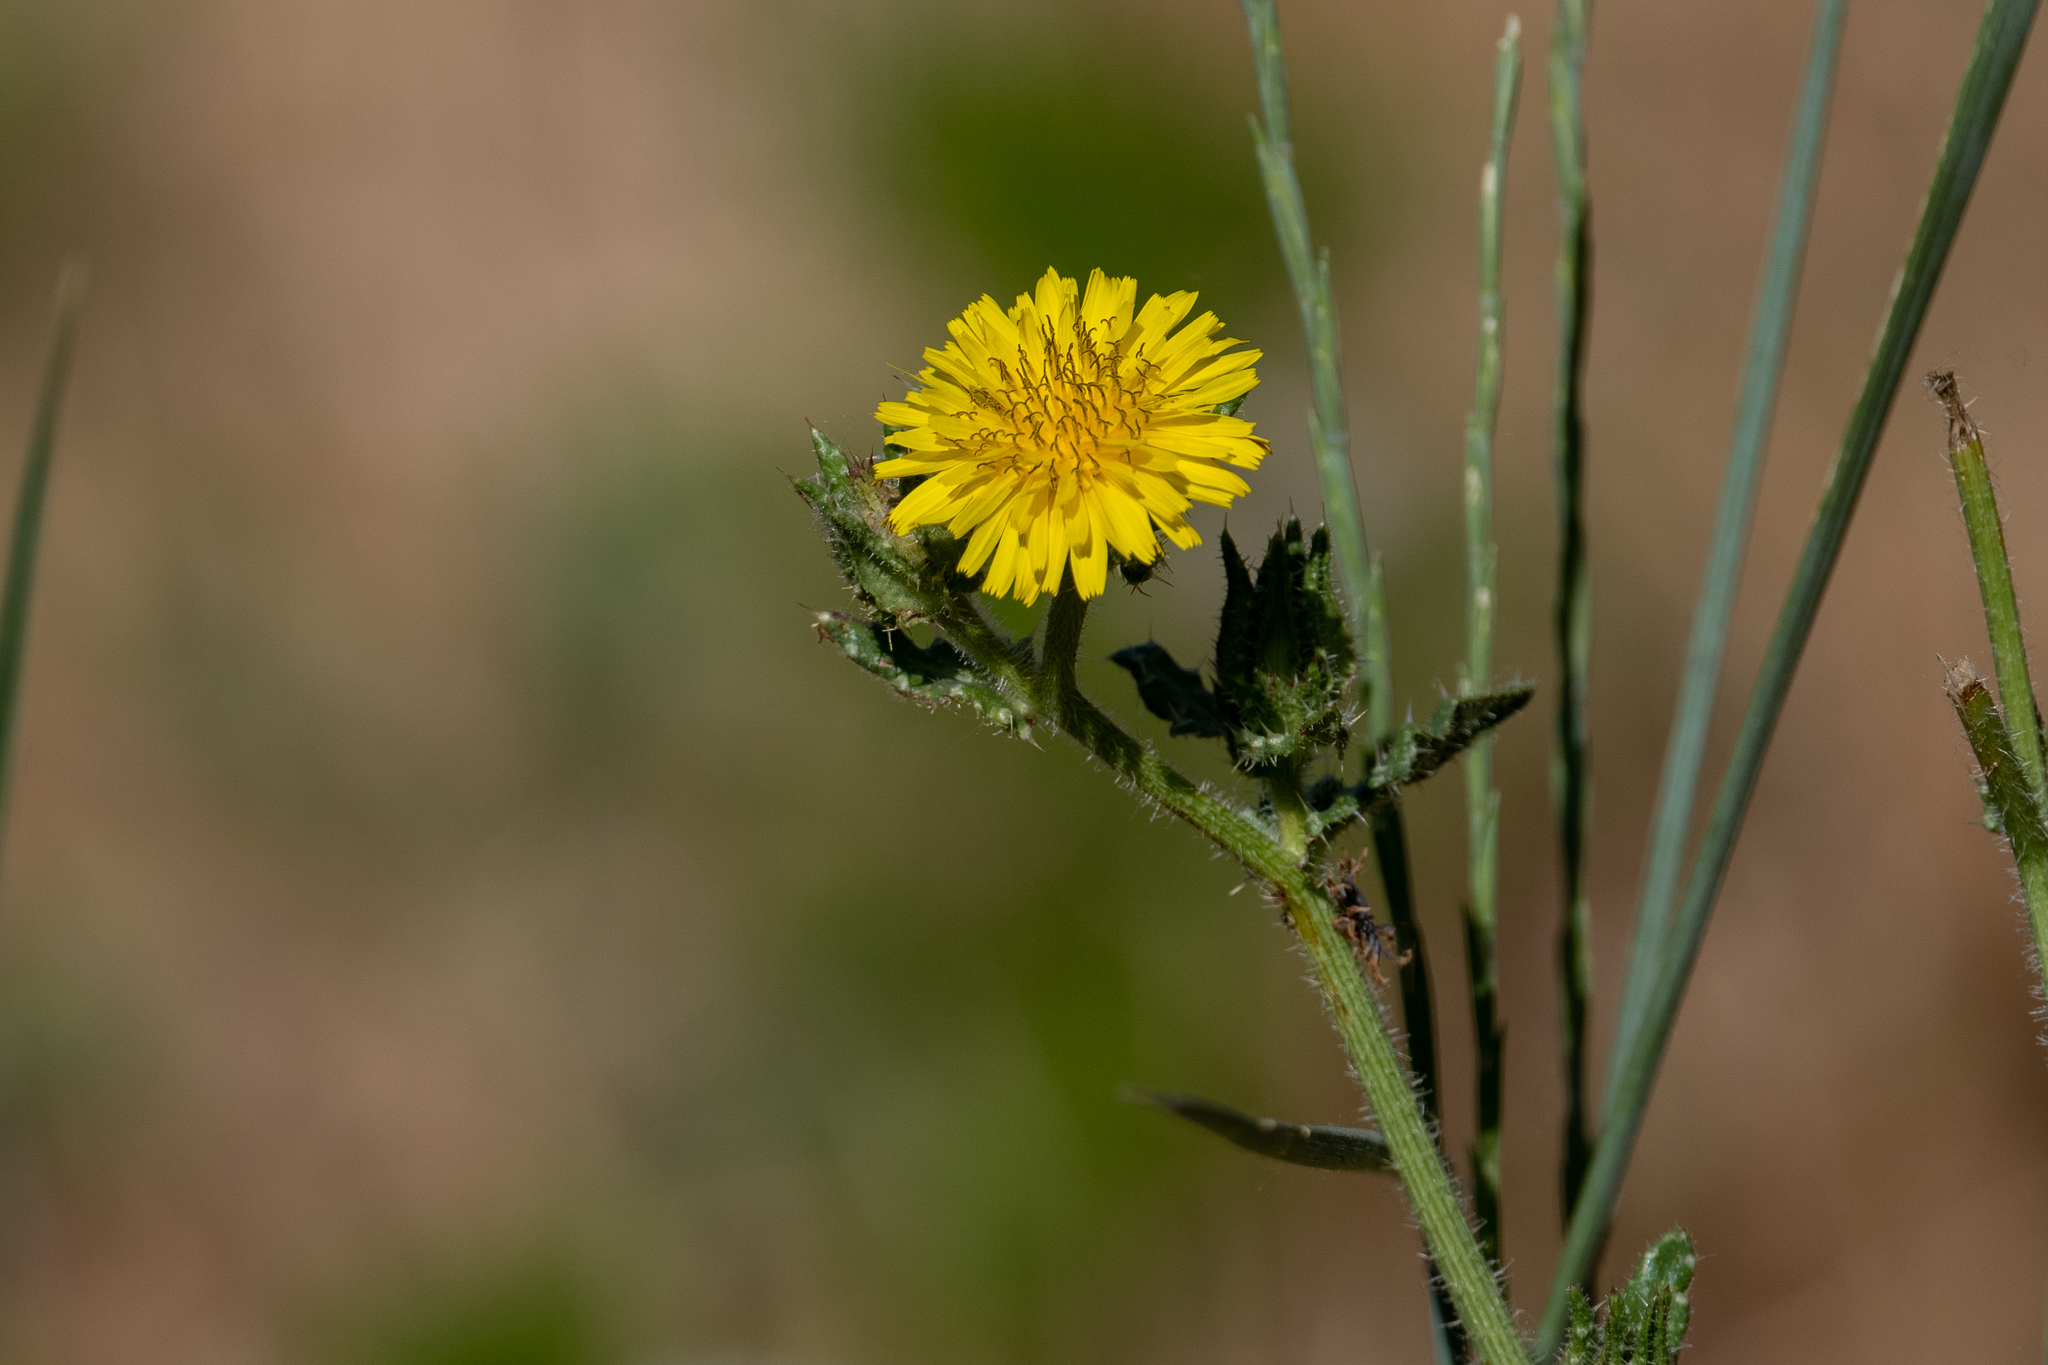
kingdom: Plantae
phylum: Tracheophyta
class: Magnoliopsida
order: Asterales
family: Asteraceae
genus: Helminthotheca
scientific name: Helminthotheca echioides
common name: Ox-tongue
